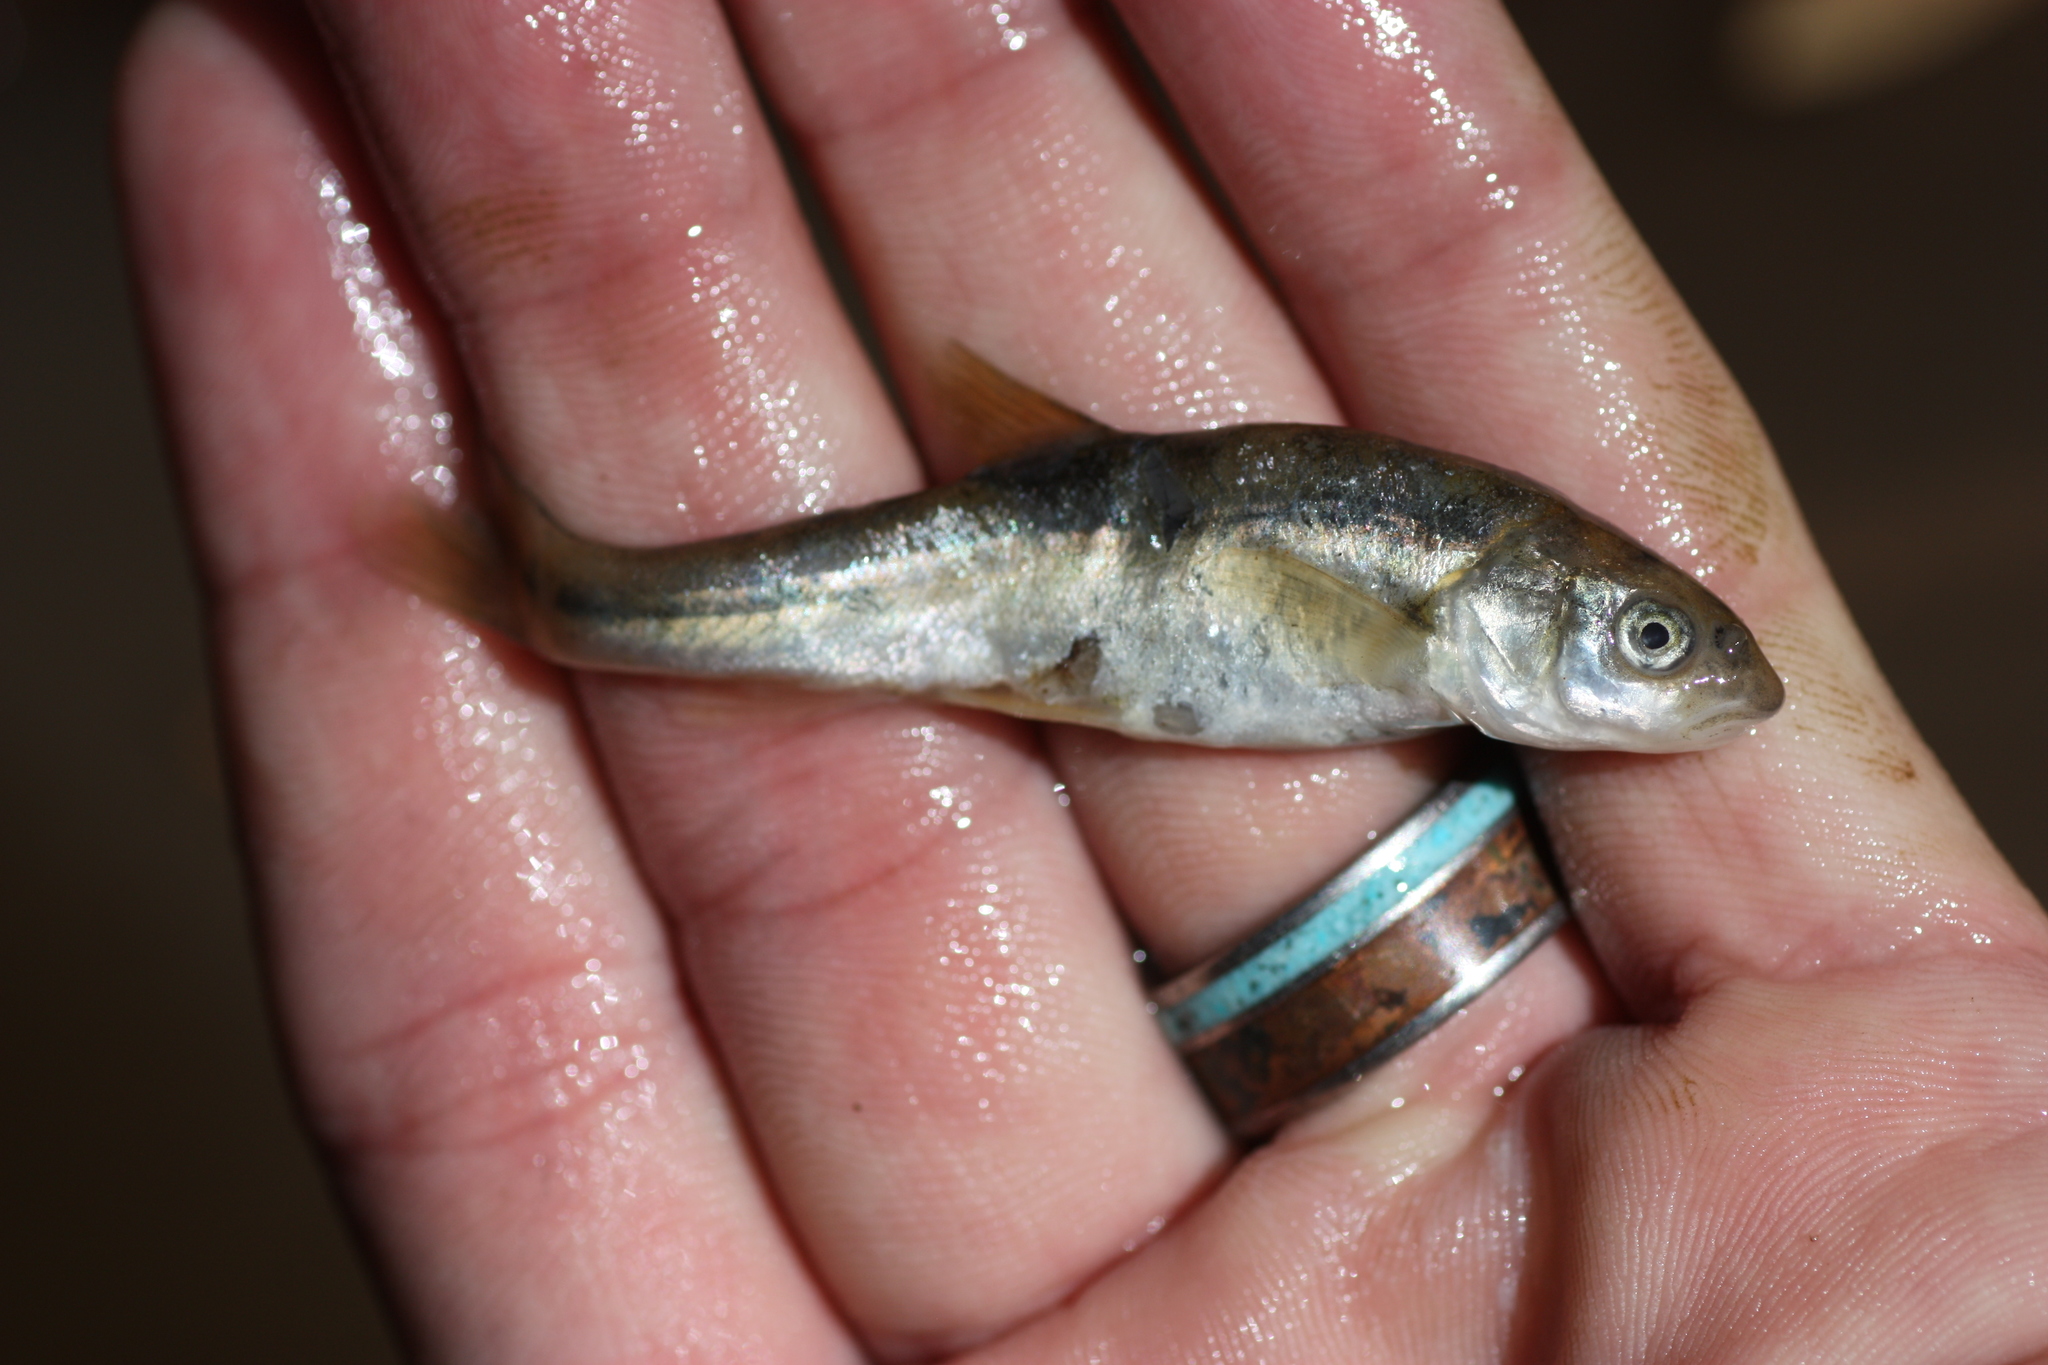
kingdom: Animalia
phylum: Chordata
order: Cypriniformes
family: Cyprinidae
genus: Agosia
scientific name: Agosia chrysogaster
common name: Longfin dace
